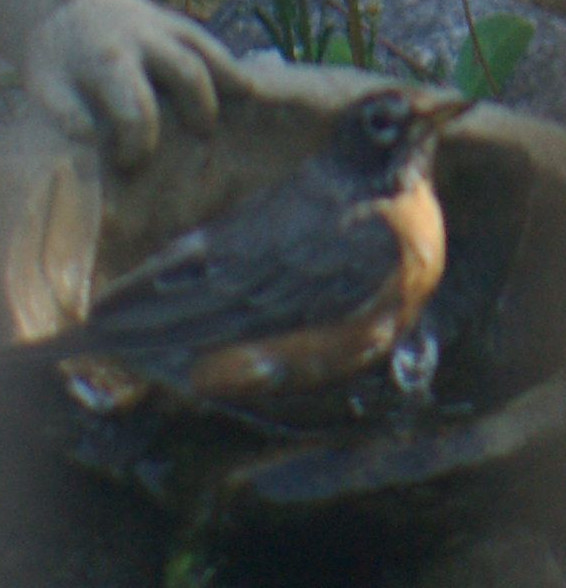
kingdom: Animalia
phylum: Chordata
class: Aves
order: Passeriformes
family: Turdidae
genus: Turdus
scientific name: Turdus migratorius
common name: American robin
